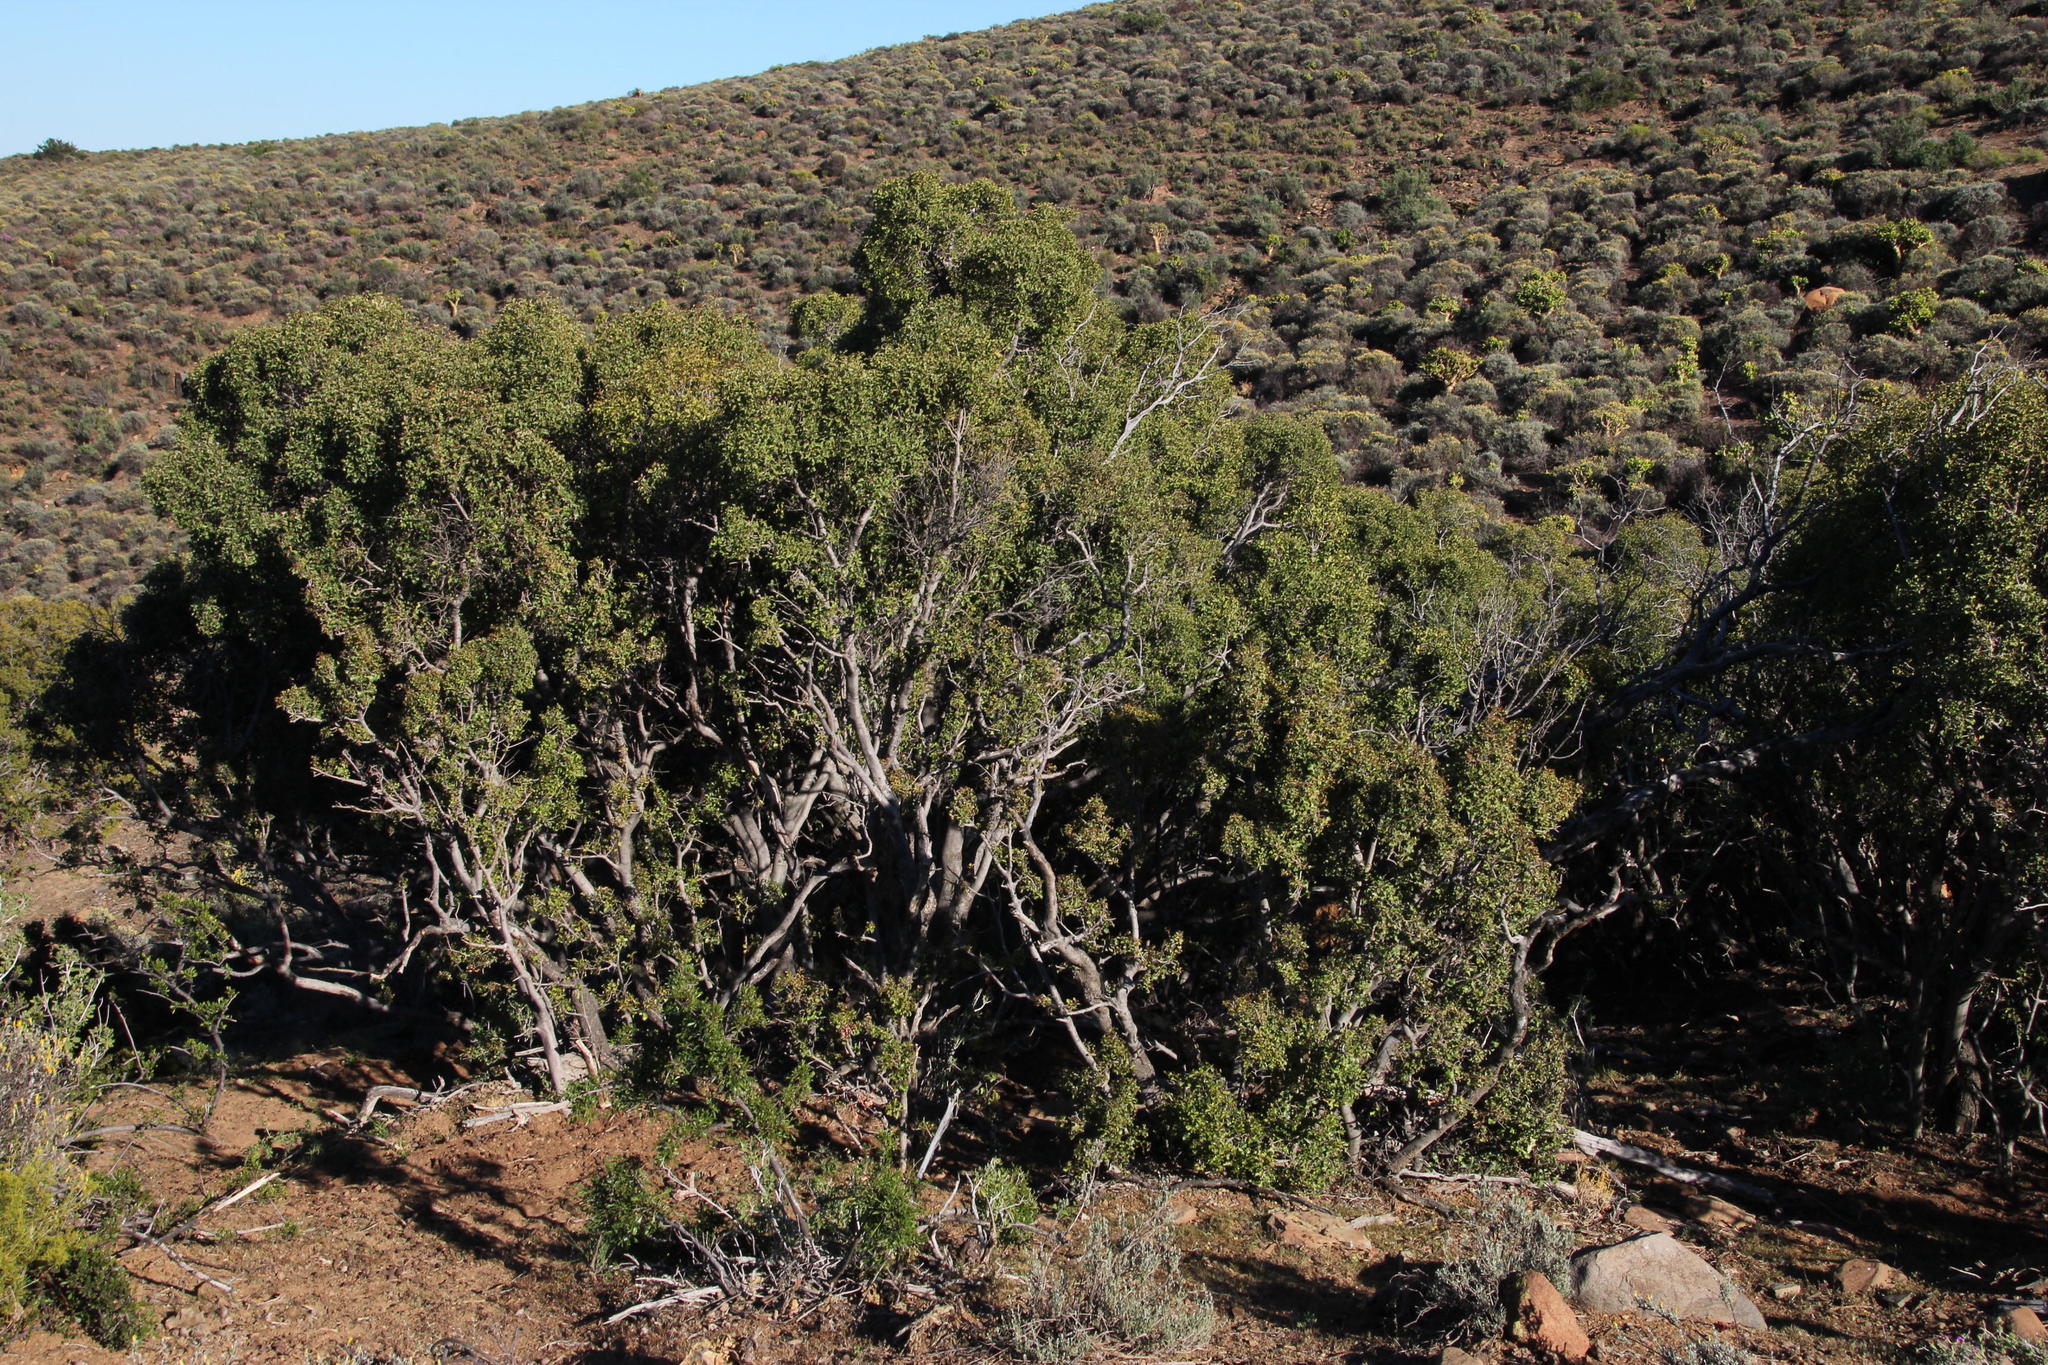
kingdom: Plantae
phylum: Tracheophyta
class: Magnoliopsida
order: Ericales
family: Ebenaceae
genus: Euclea
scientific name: Euclea undulata
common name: Small-leaved guarri
